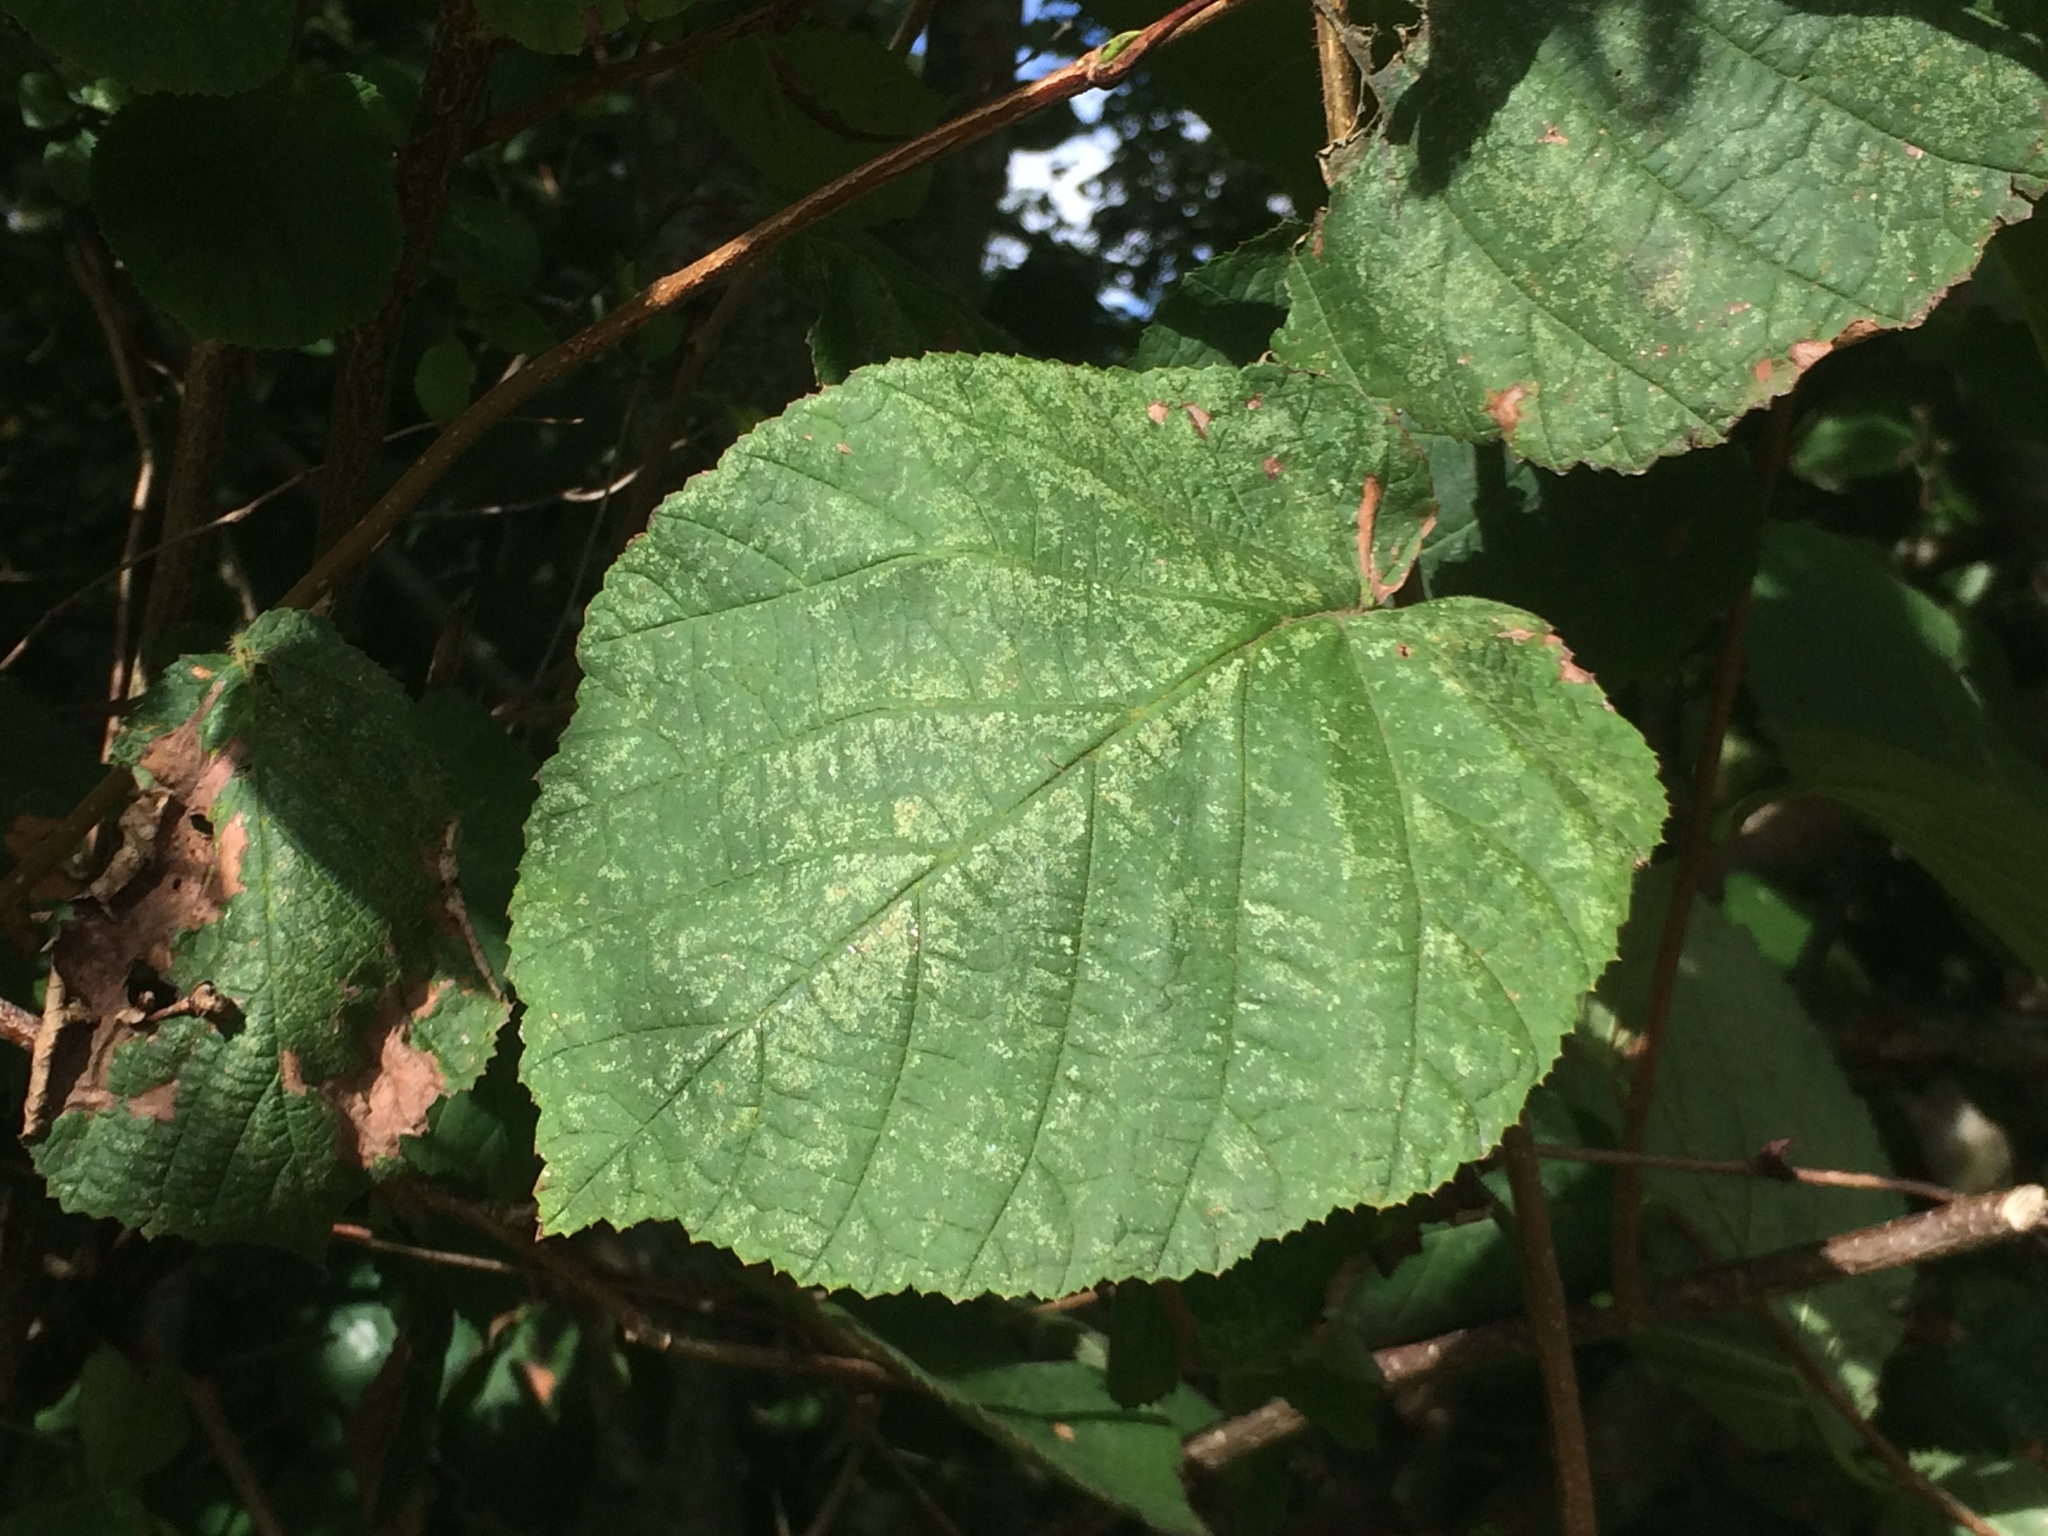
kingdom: Plantae
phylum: Tracheophyta
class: Magnoliopsida
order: Fagales
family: Betulaceae
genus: Corylus
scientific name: Corylus avellana
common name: European hazel
